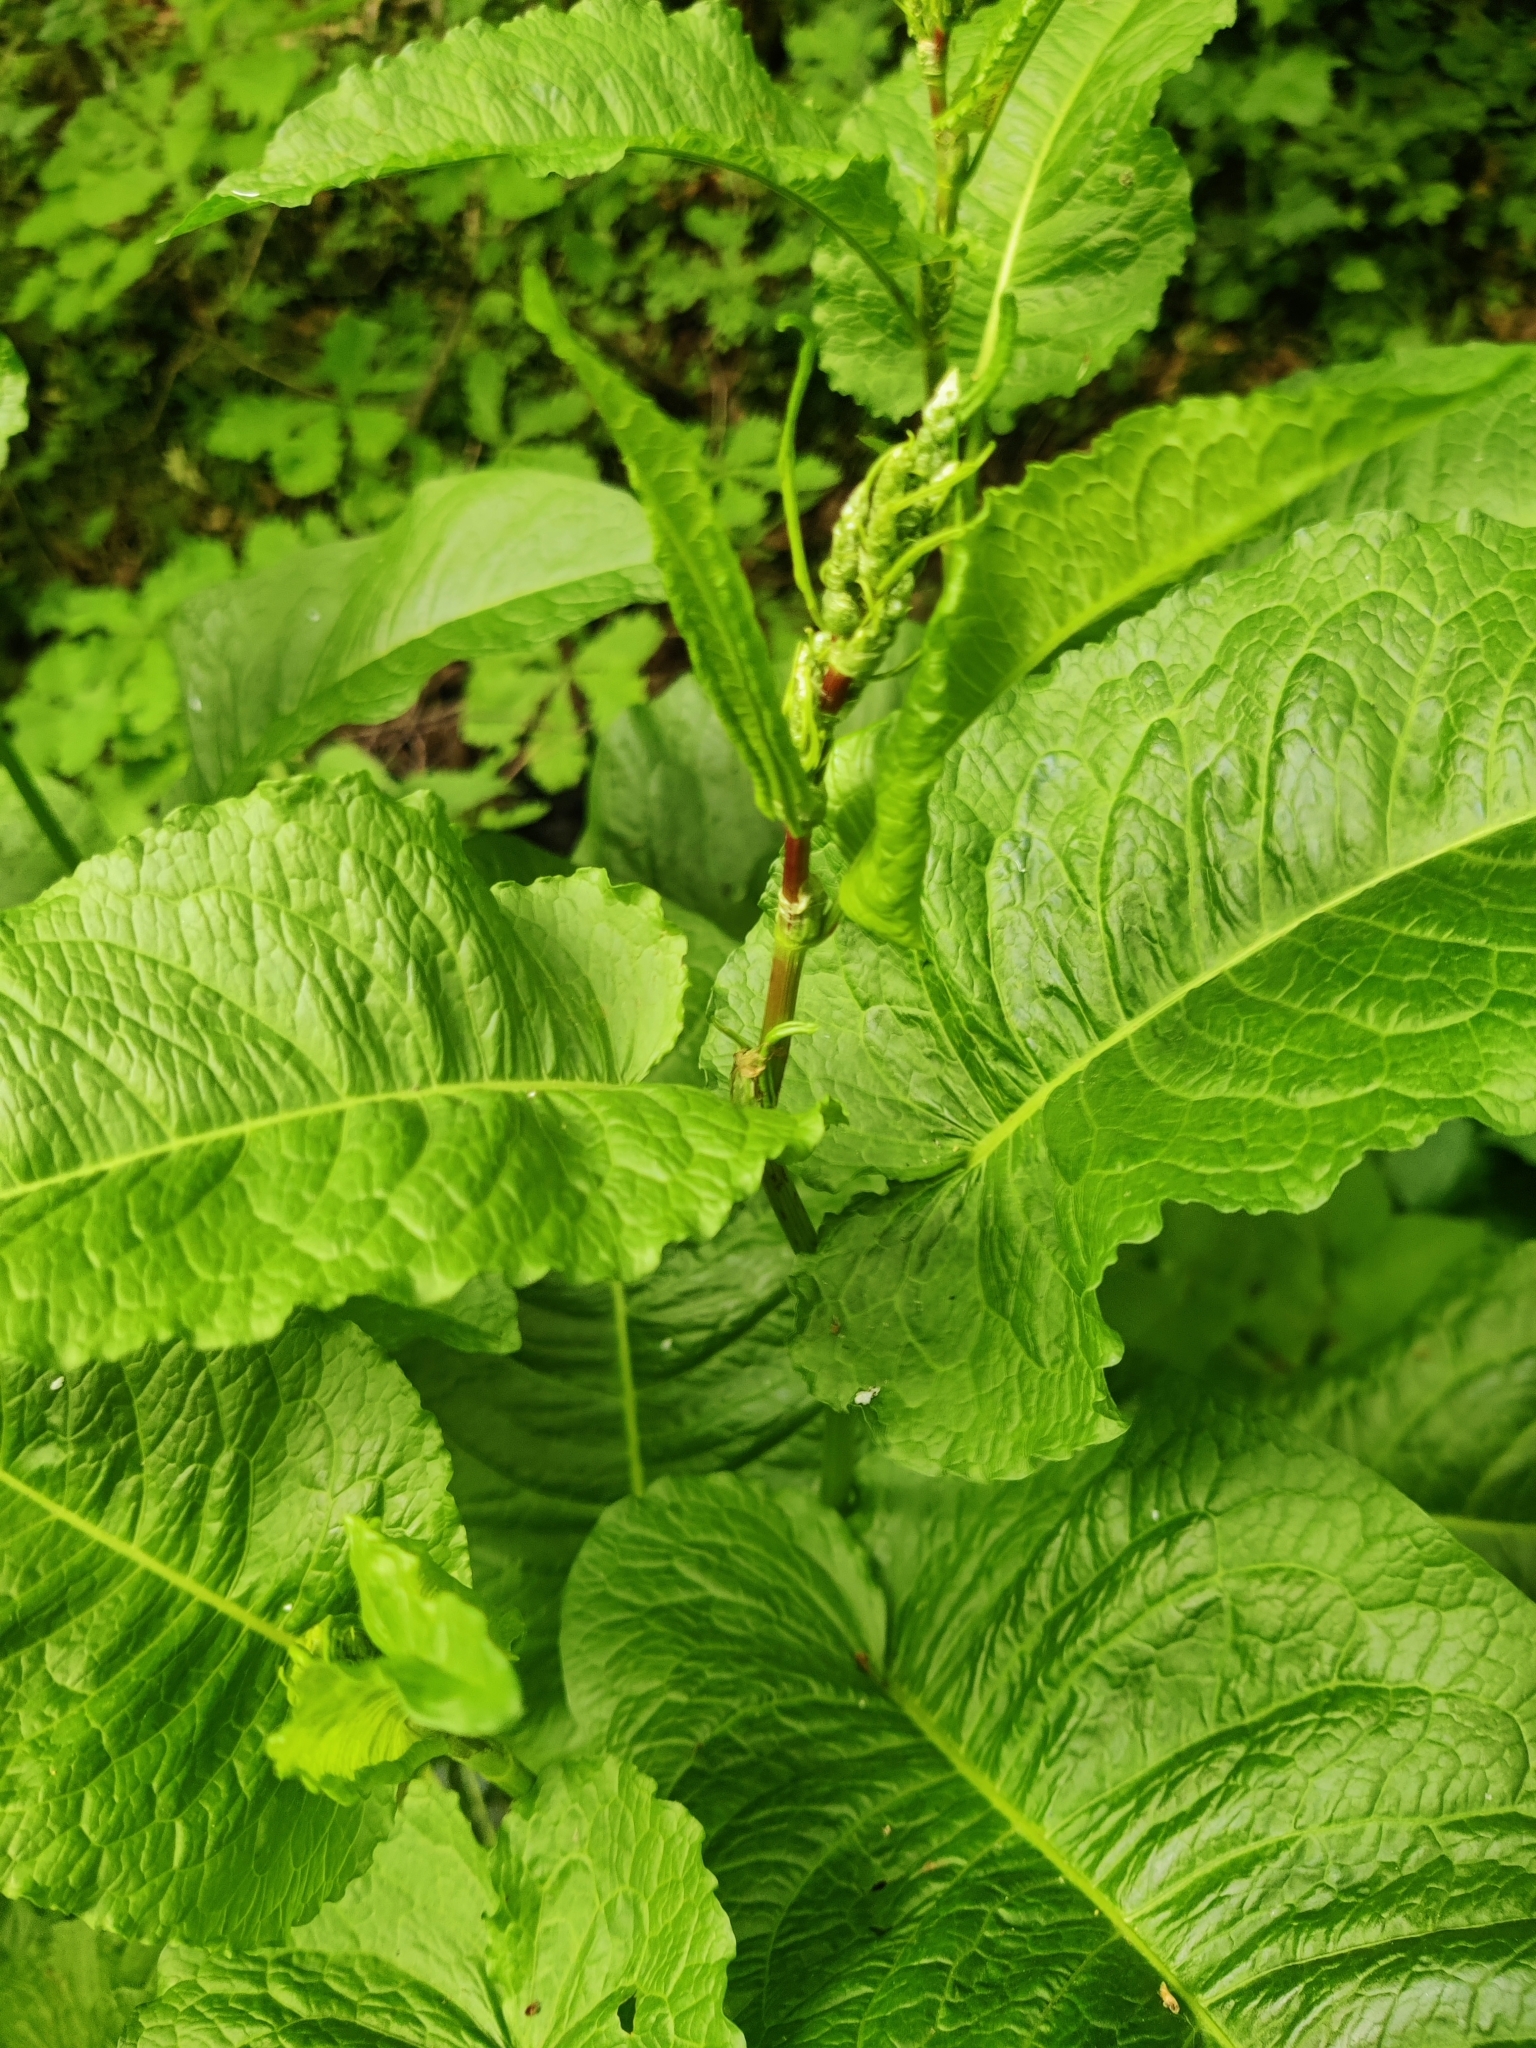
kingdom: Plantae
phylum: Tracheophyta
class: Magnoliopsida
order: Caryophyllales
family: Polygonaceae
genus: Rumex
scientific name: Rumex obtusifolius
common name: Bitter dock
